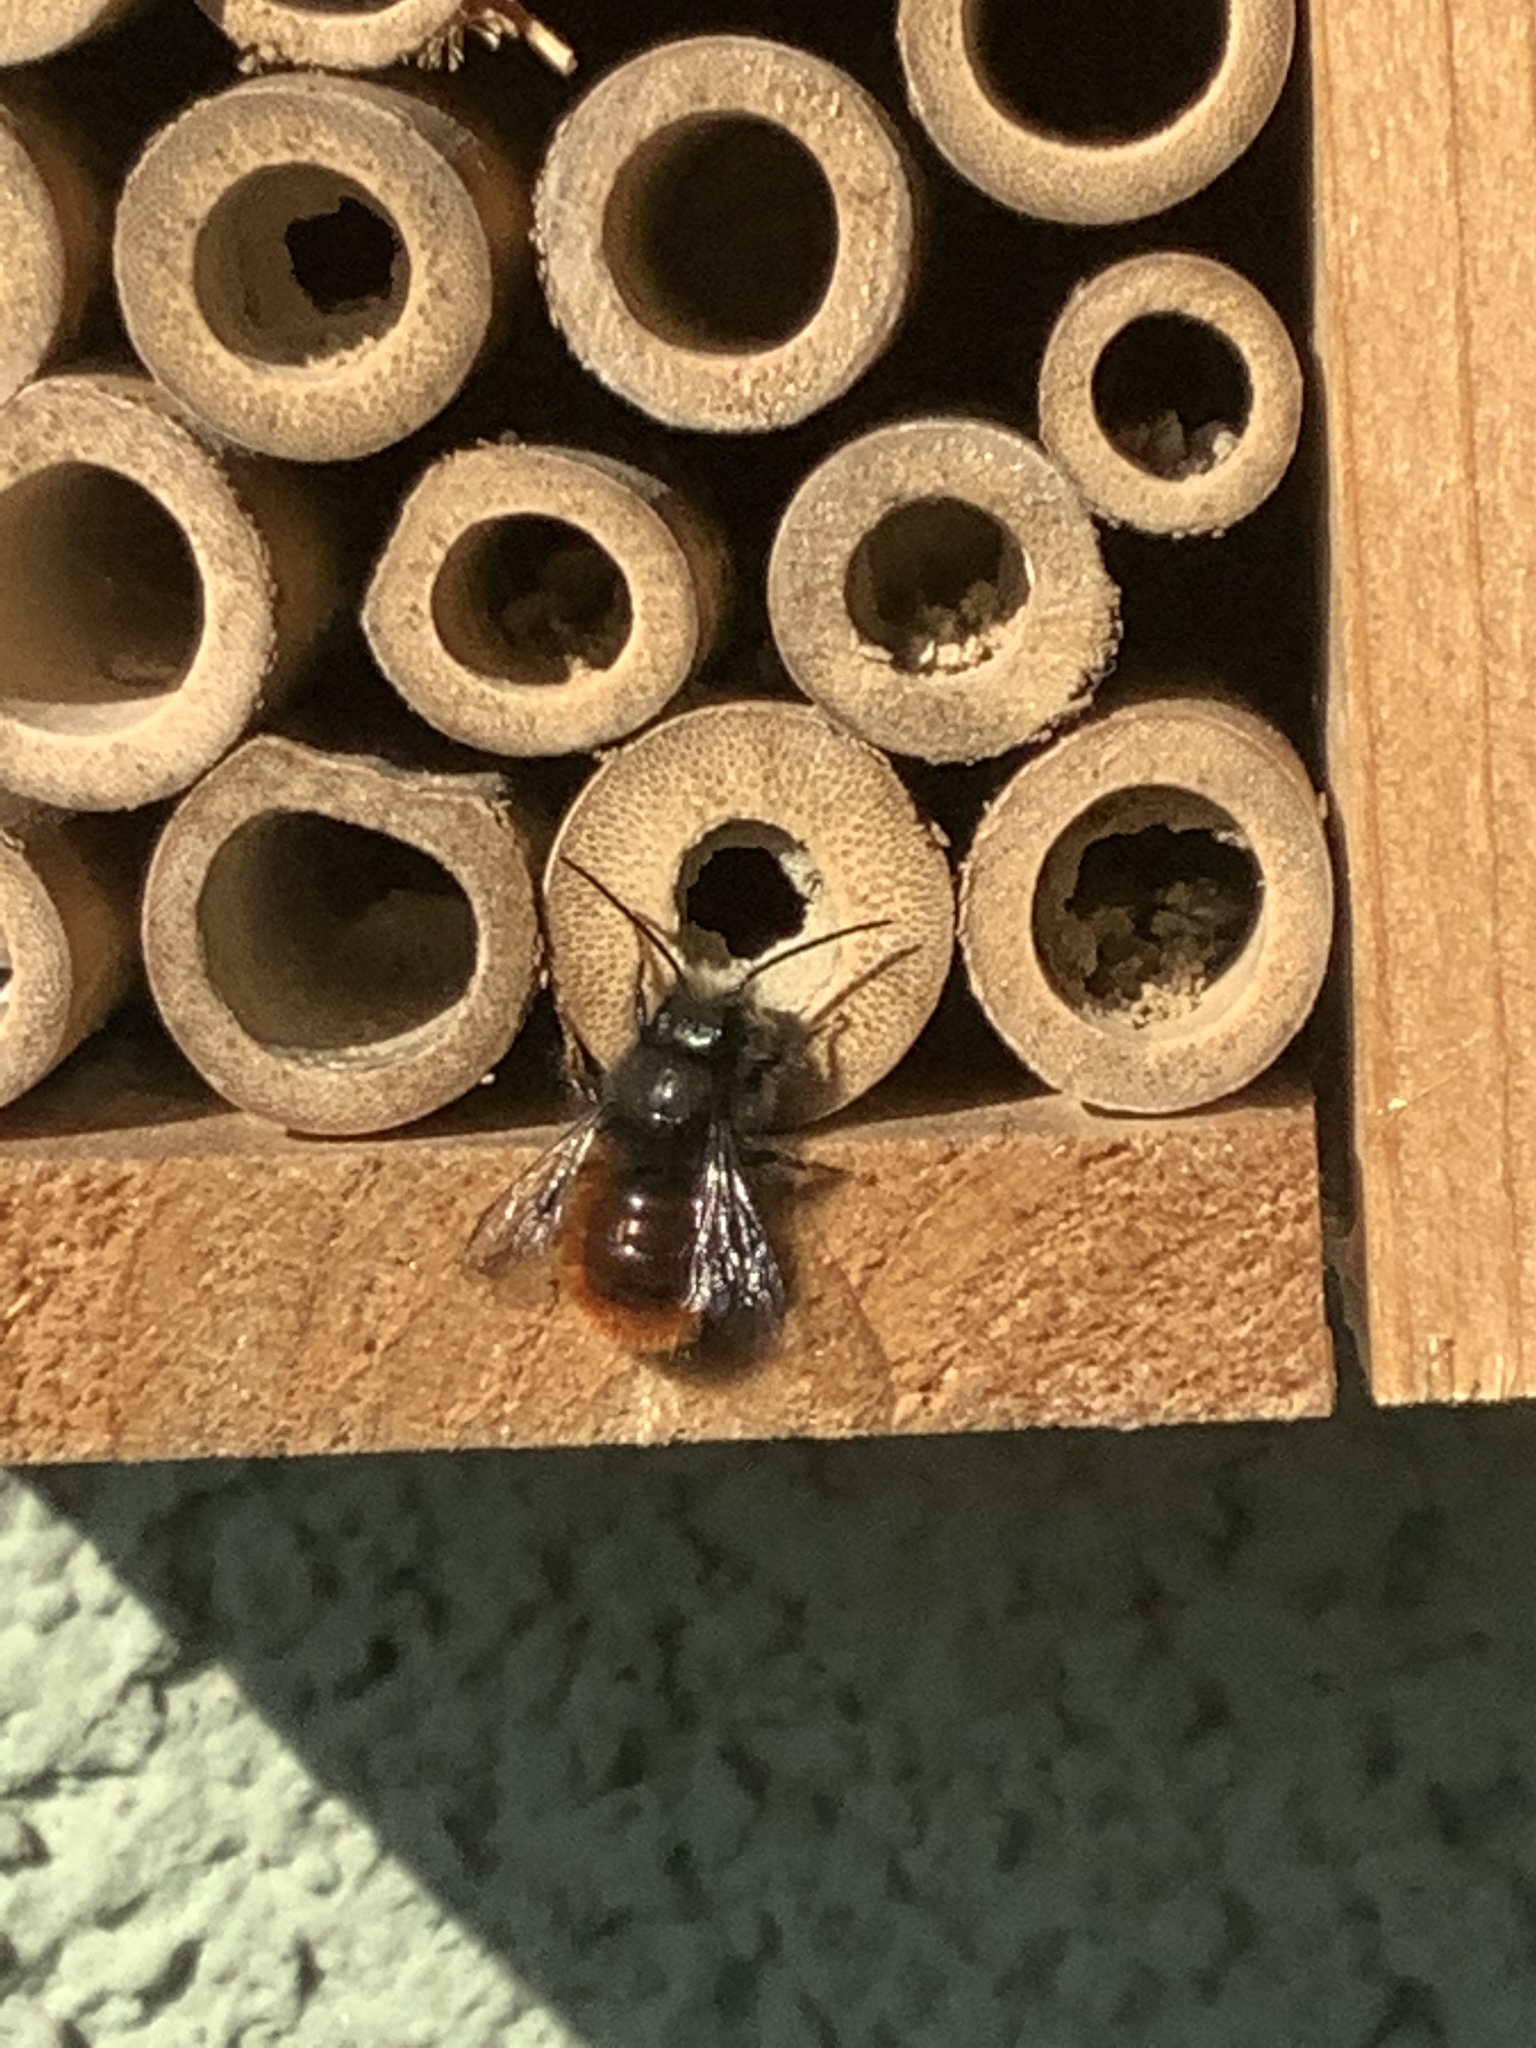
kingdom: Animalia
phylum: Arthropoda
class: Insecta
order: Hymenoptera
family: Megachilidae
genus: Osmia
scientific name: Osmia cornuta
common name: Mason bee
